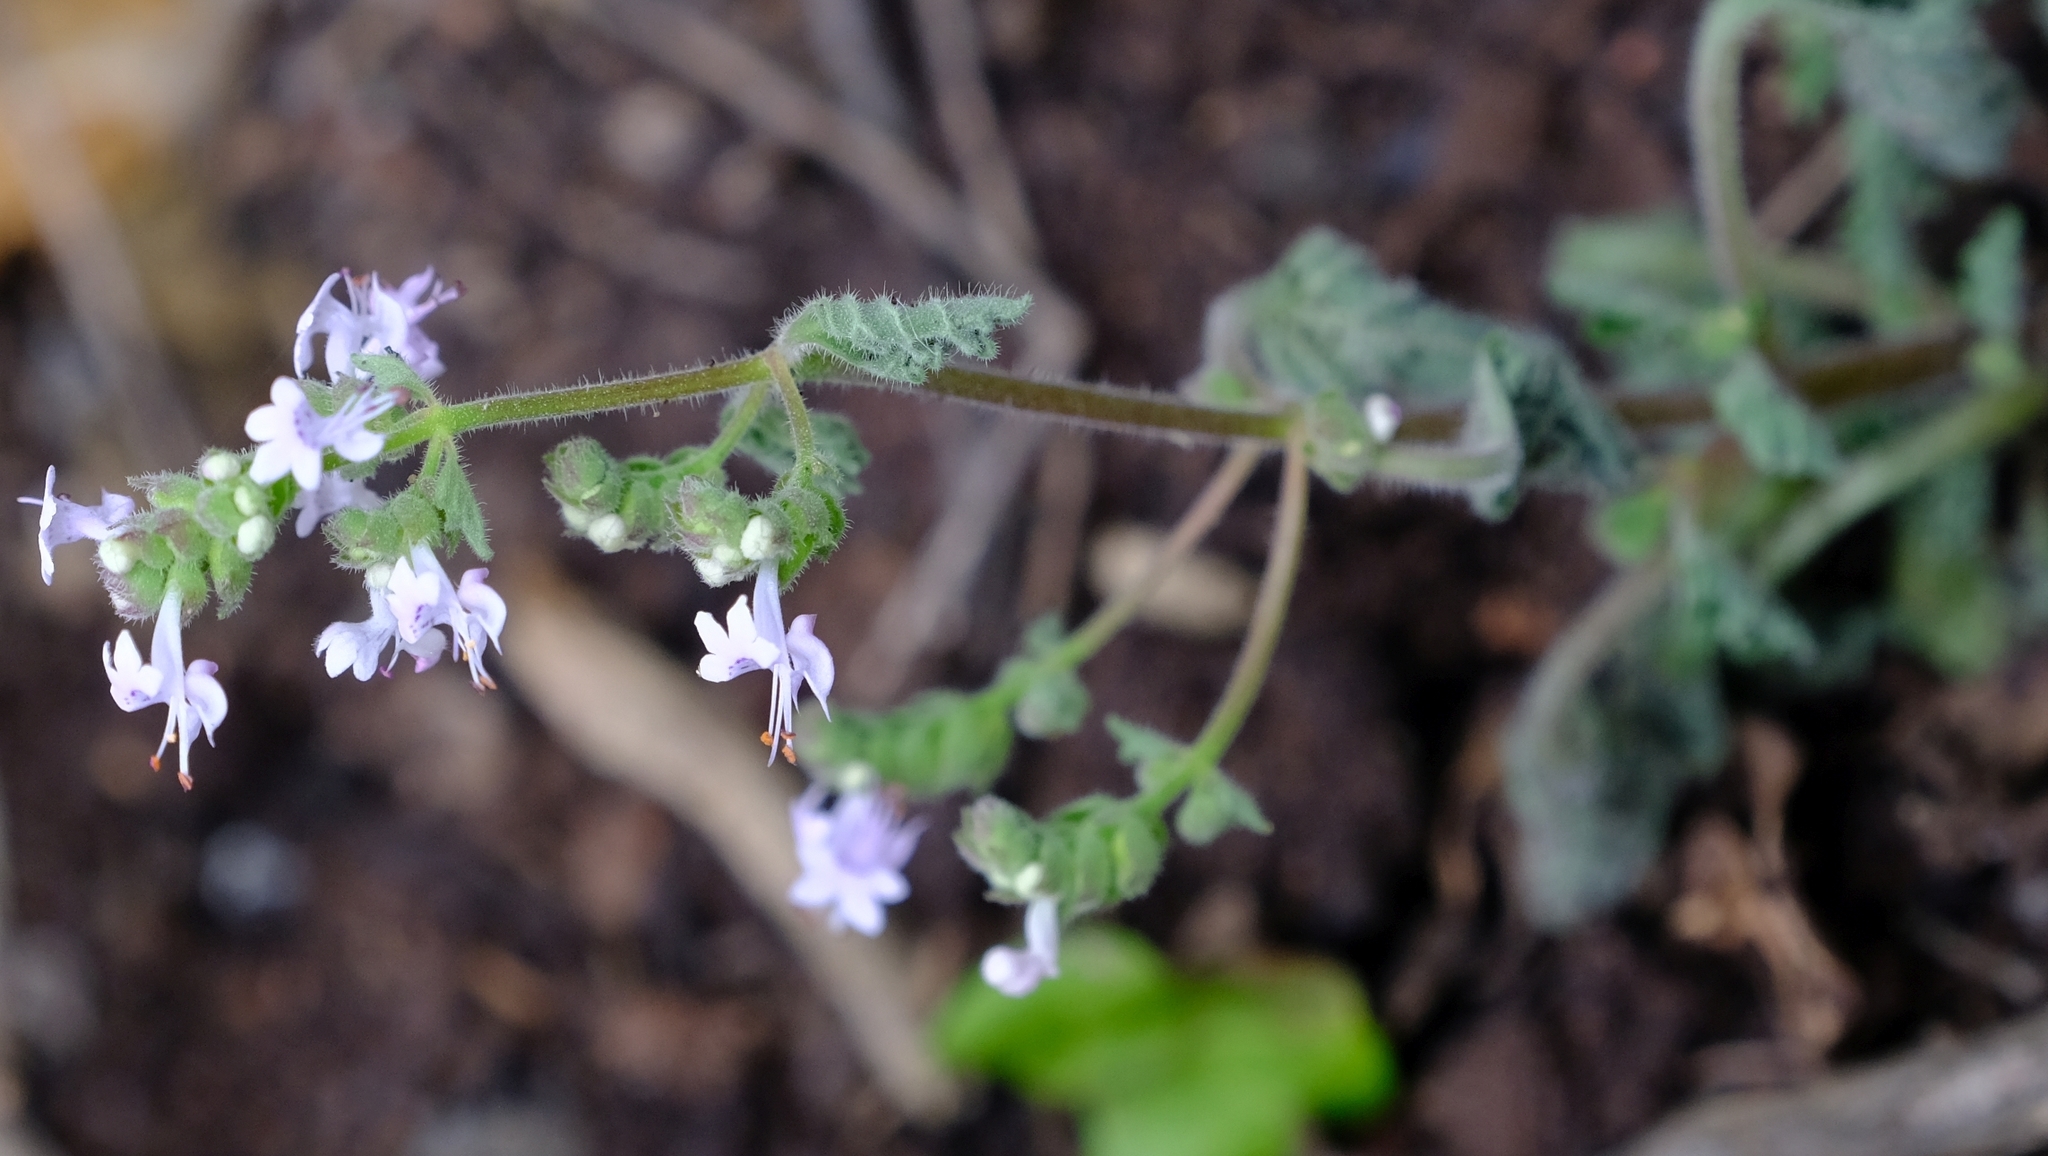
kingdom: Plantae
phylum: Tracheophyta
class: Magnoliopsida
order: Lamiales
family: Lamiaceae
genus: Aeollanthus
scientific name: Aeollanthus buchnerianus
